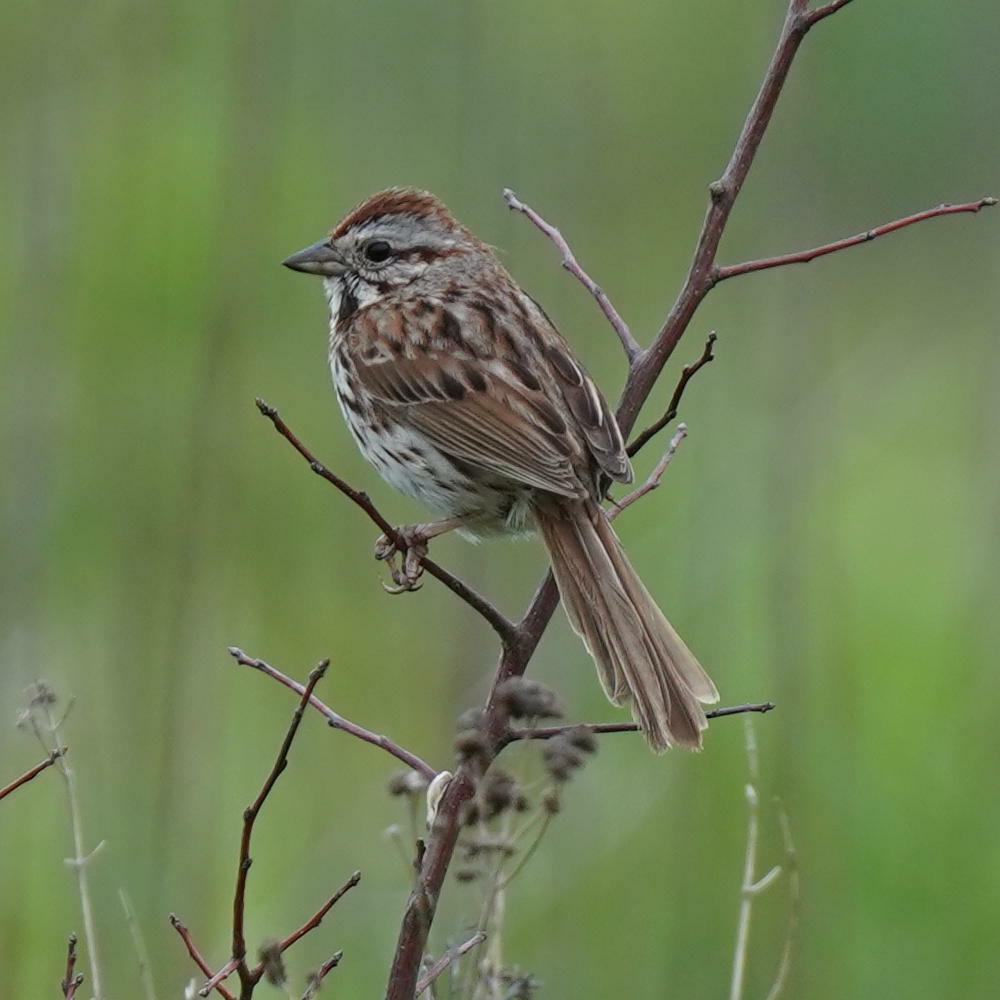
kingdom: Animalia
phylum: Chordata
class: Aves
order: Passeriformes
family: Passerellidae
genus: Melospiza
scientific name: Melospiza melodia
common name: Song sparrow
